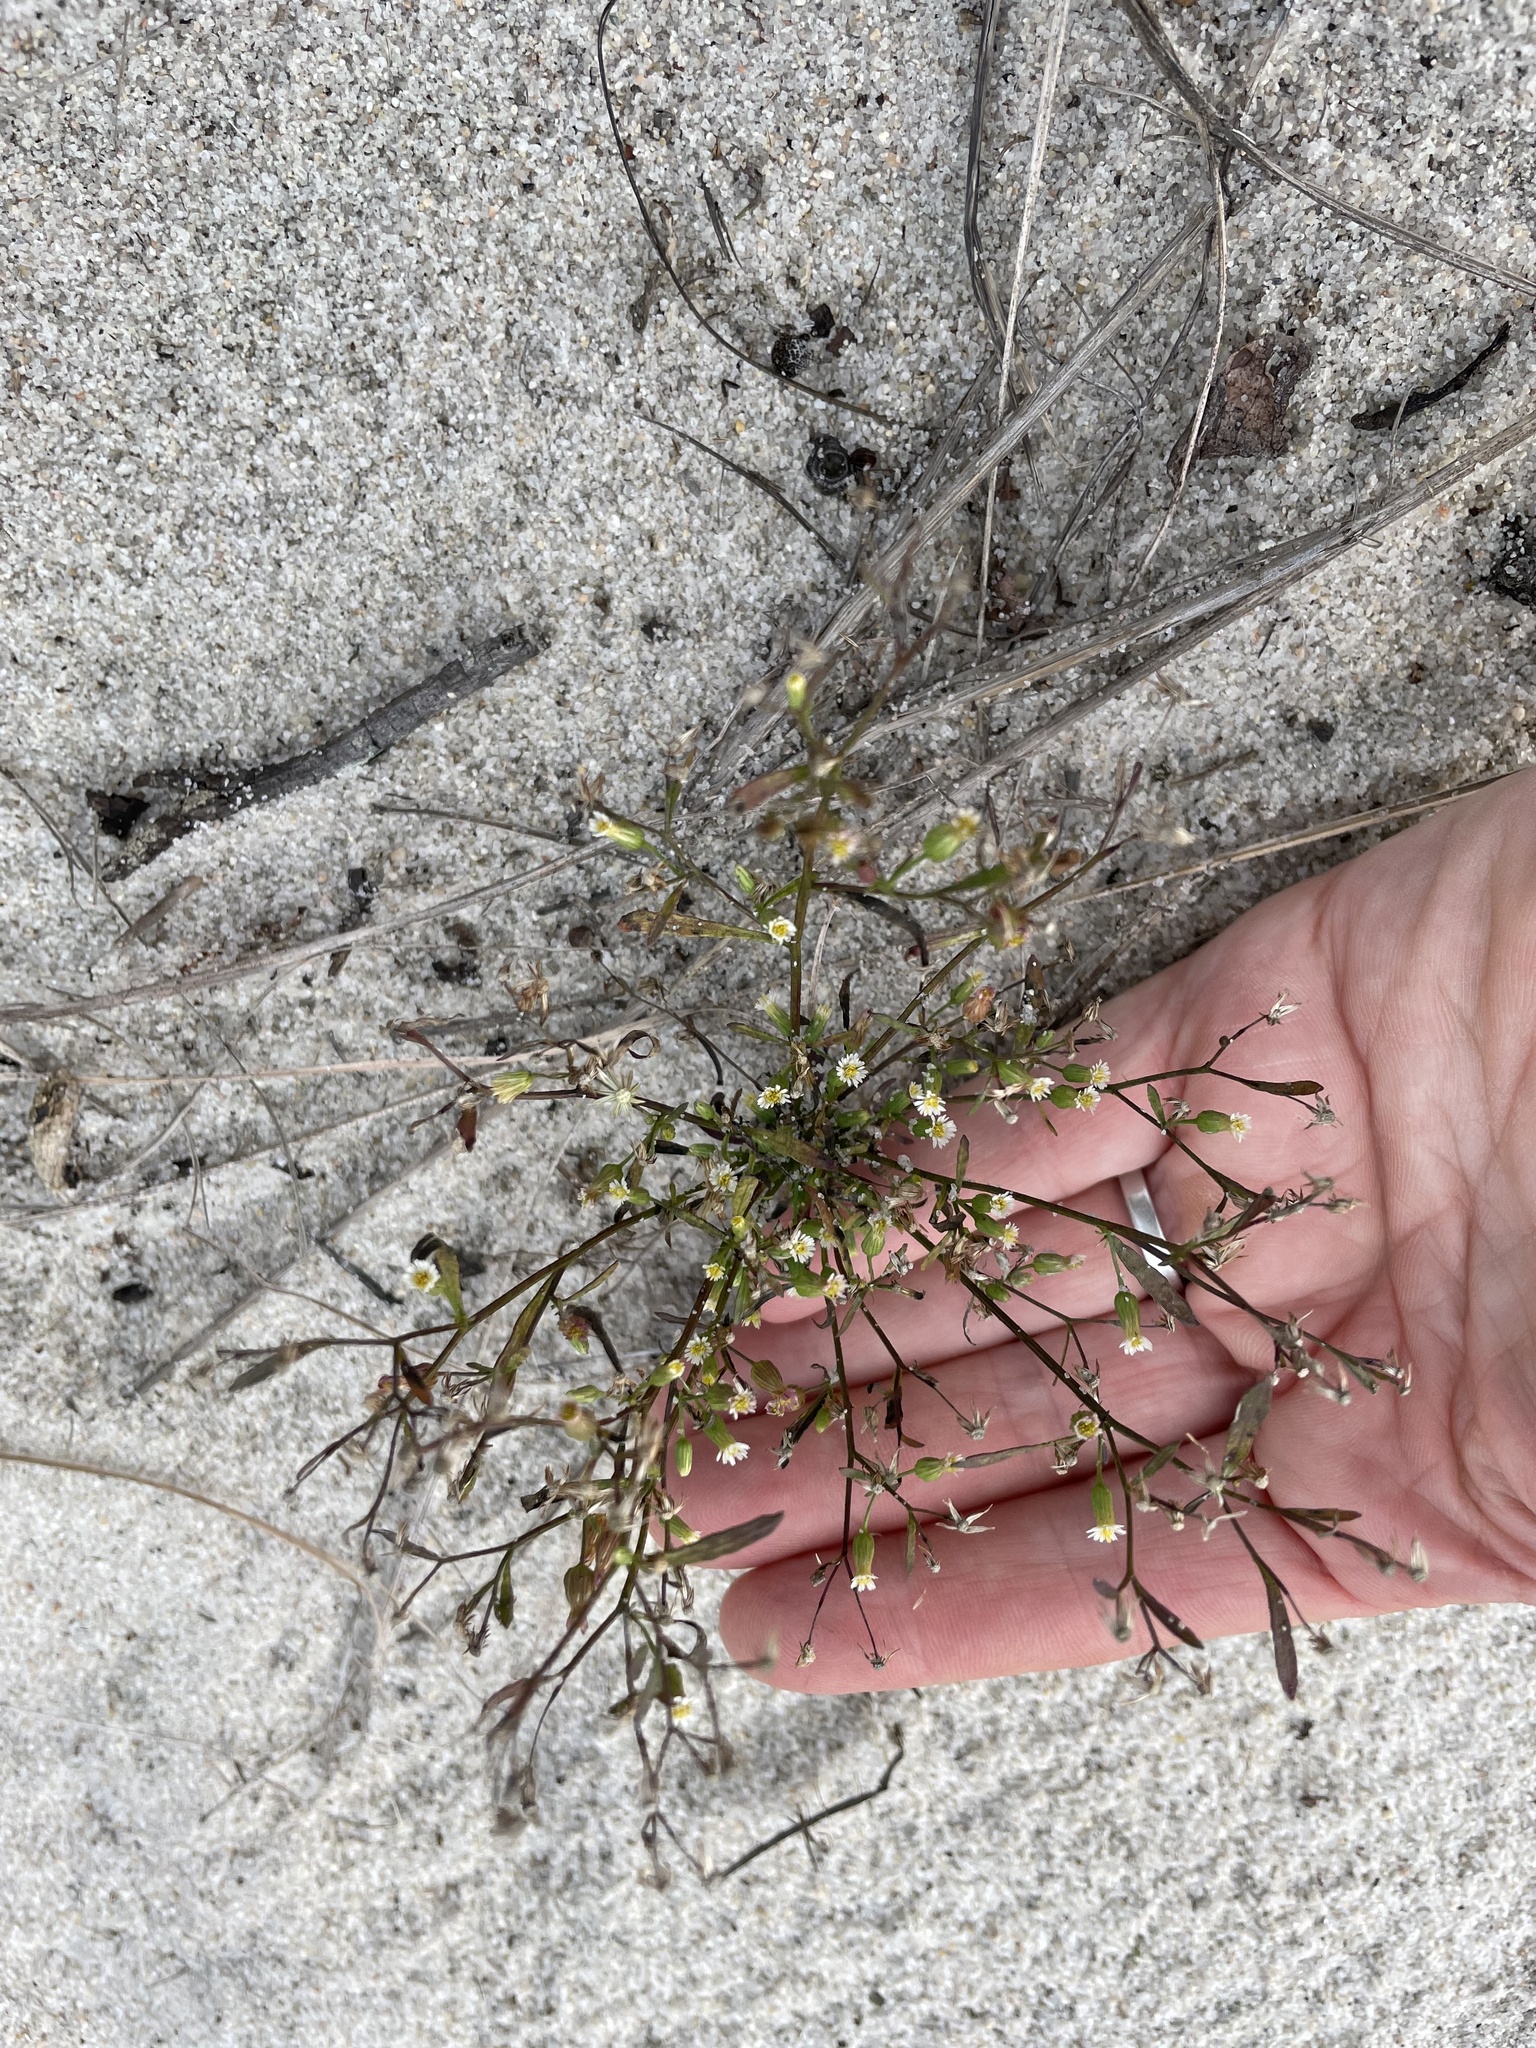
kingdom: Plantae
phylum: Tracheophyta
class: Magnoliopsida
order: Asterales
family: Asteraceae
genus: Erigeron
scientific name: Erigeron canadensis
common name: Canadian fleabane
